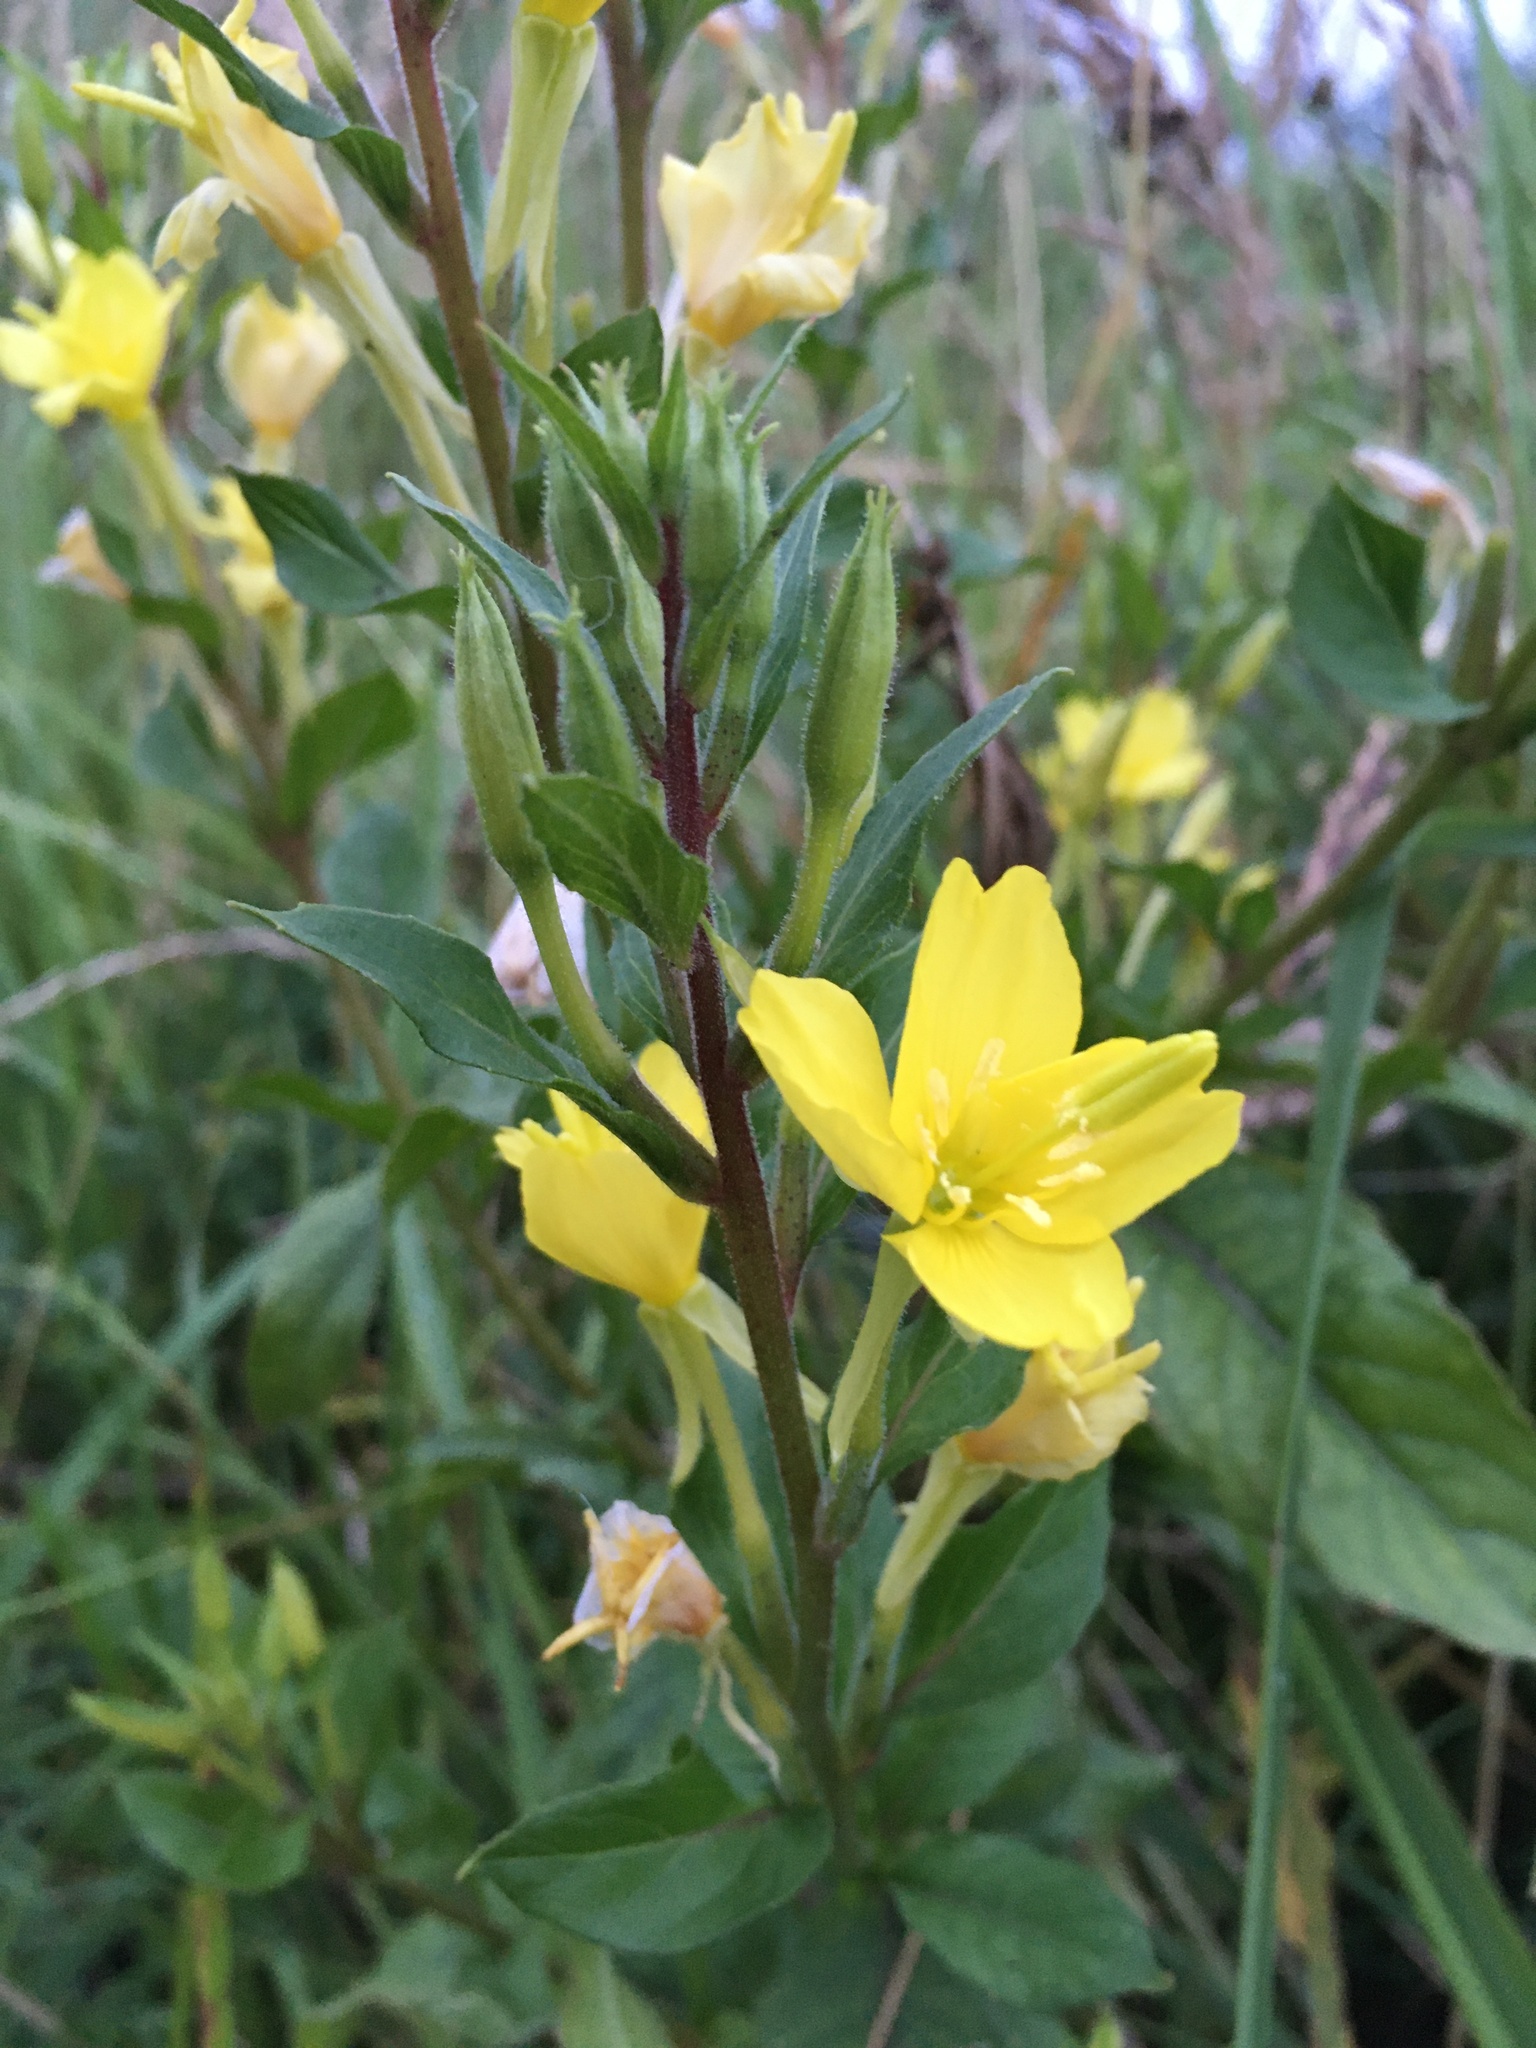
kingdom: Plantae
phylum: Tracheophyta
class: Magnoliopsida
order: Myrtales
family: Onagraceae
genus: Oenothera
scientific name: Oenothera rubricaulis
